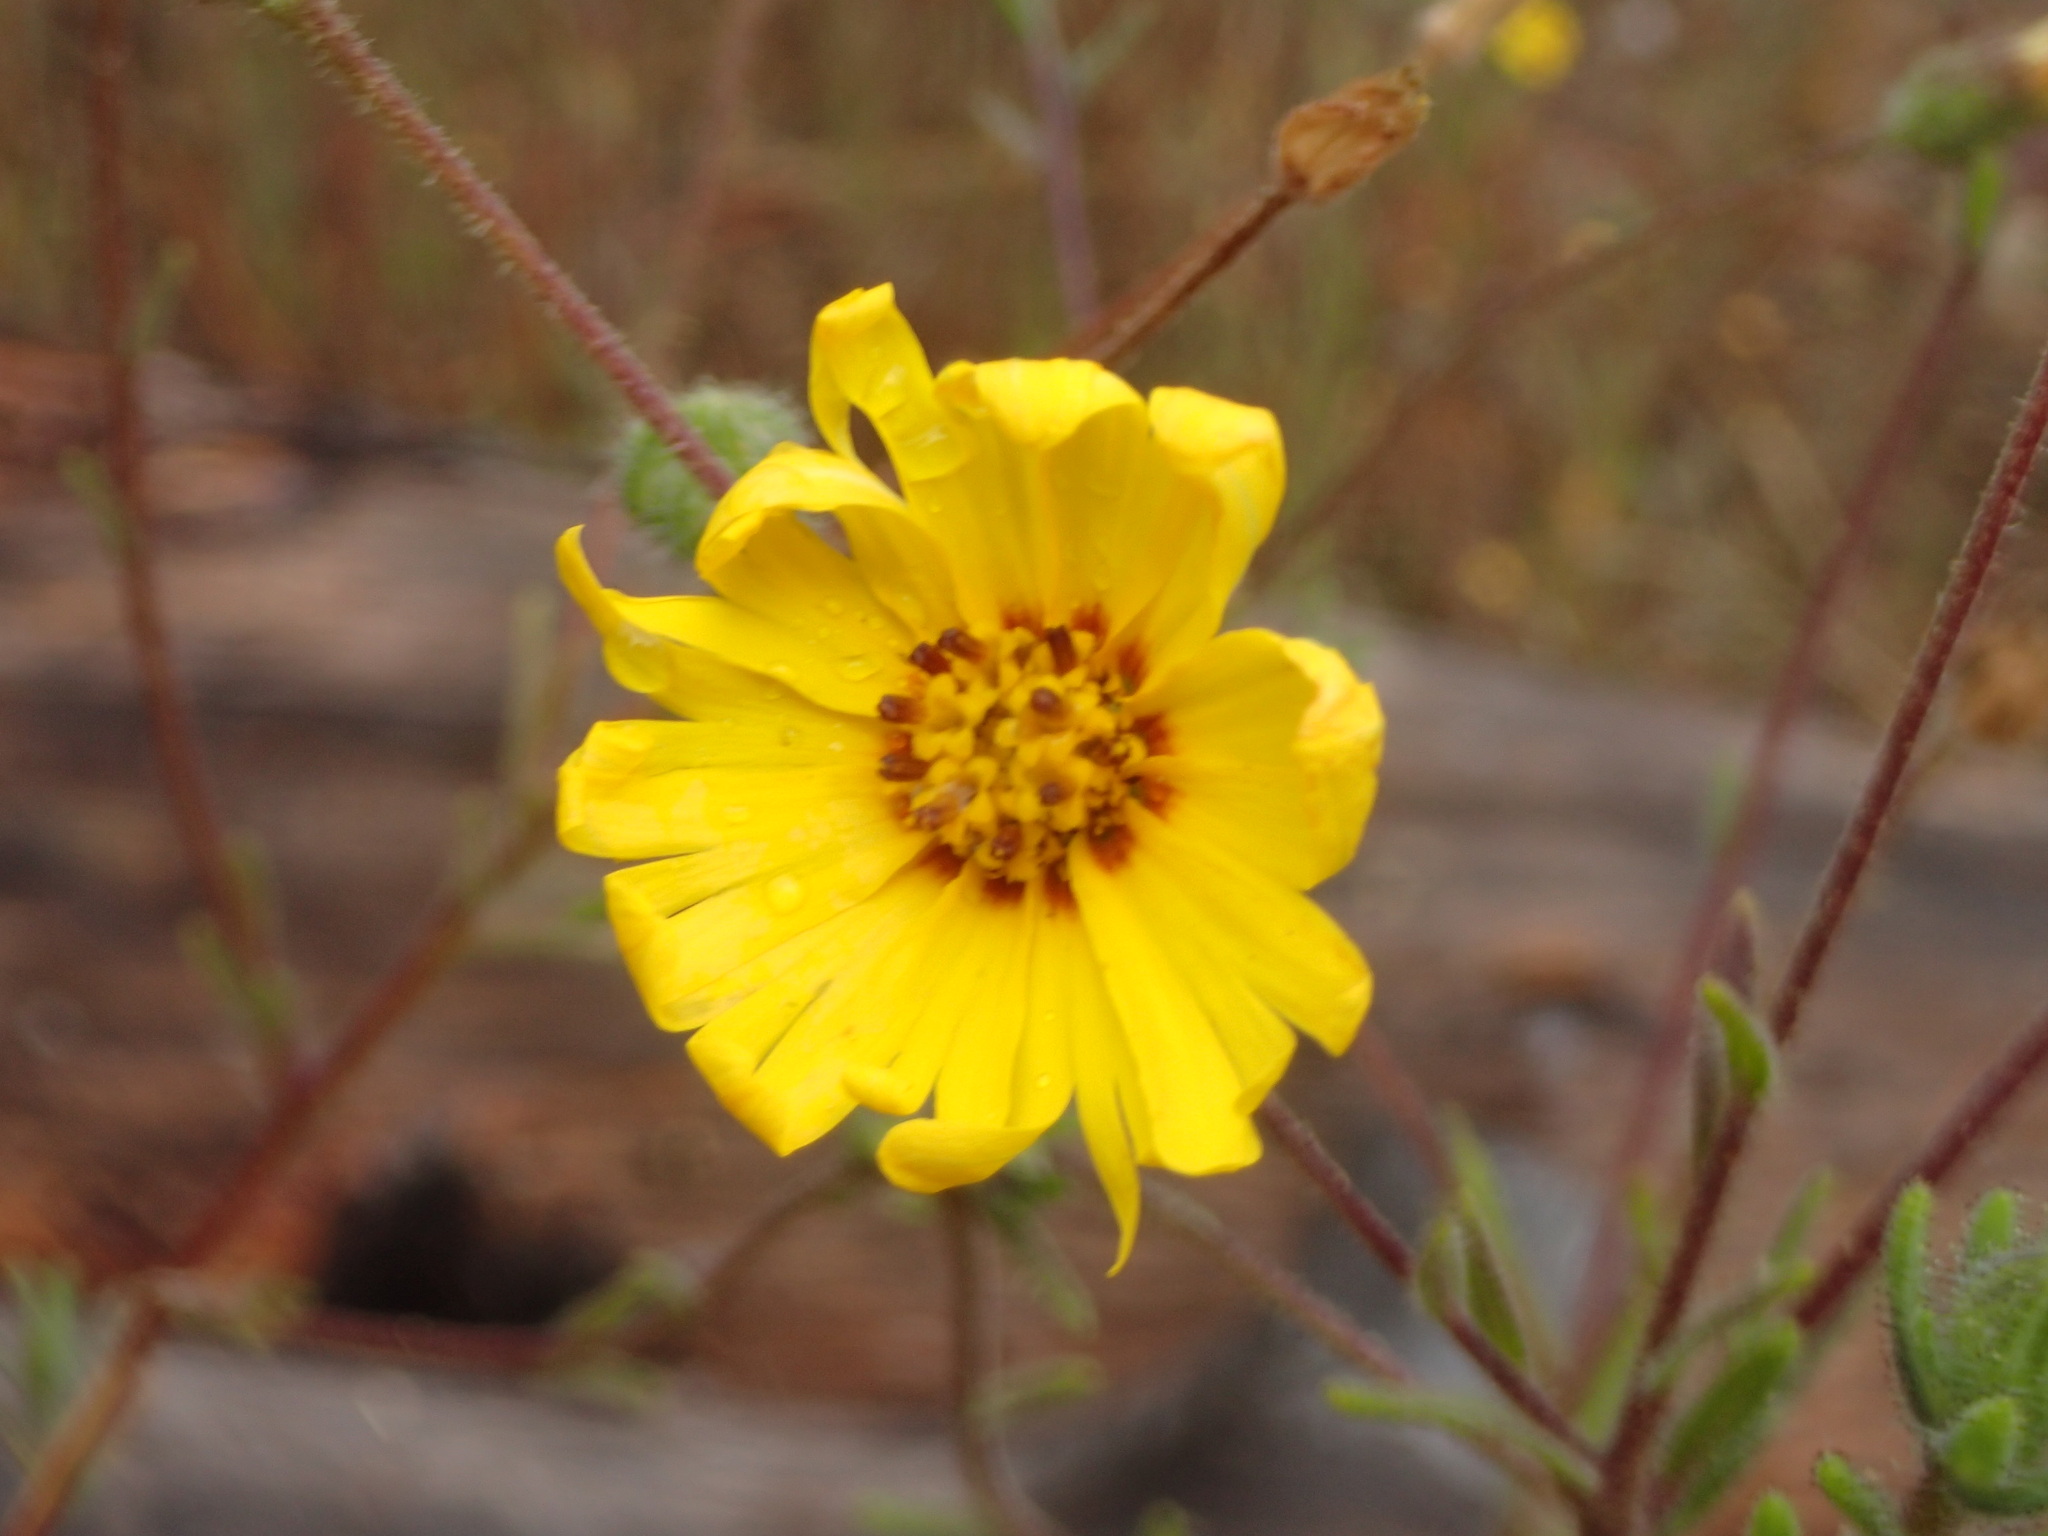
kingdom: Plantae
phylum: Tracheophyta
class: Magnoliopsida
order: Asterales
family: Asteraceae
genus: Madia
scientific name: Madia elegans
